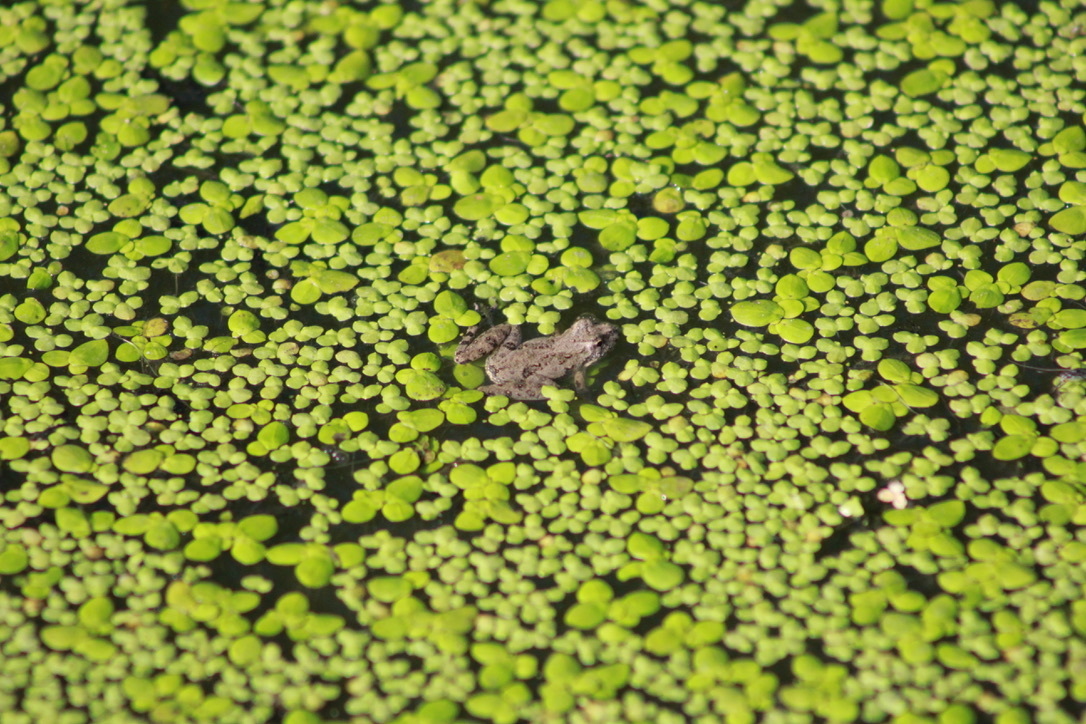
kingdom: Animalia
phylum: Chordata
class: Amphibia
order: Anura
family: Hylidae
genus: Acris
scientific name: Acris blanchardi
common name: Blanchard's cricket frog
